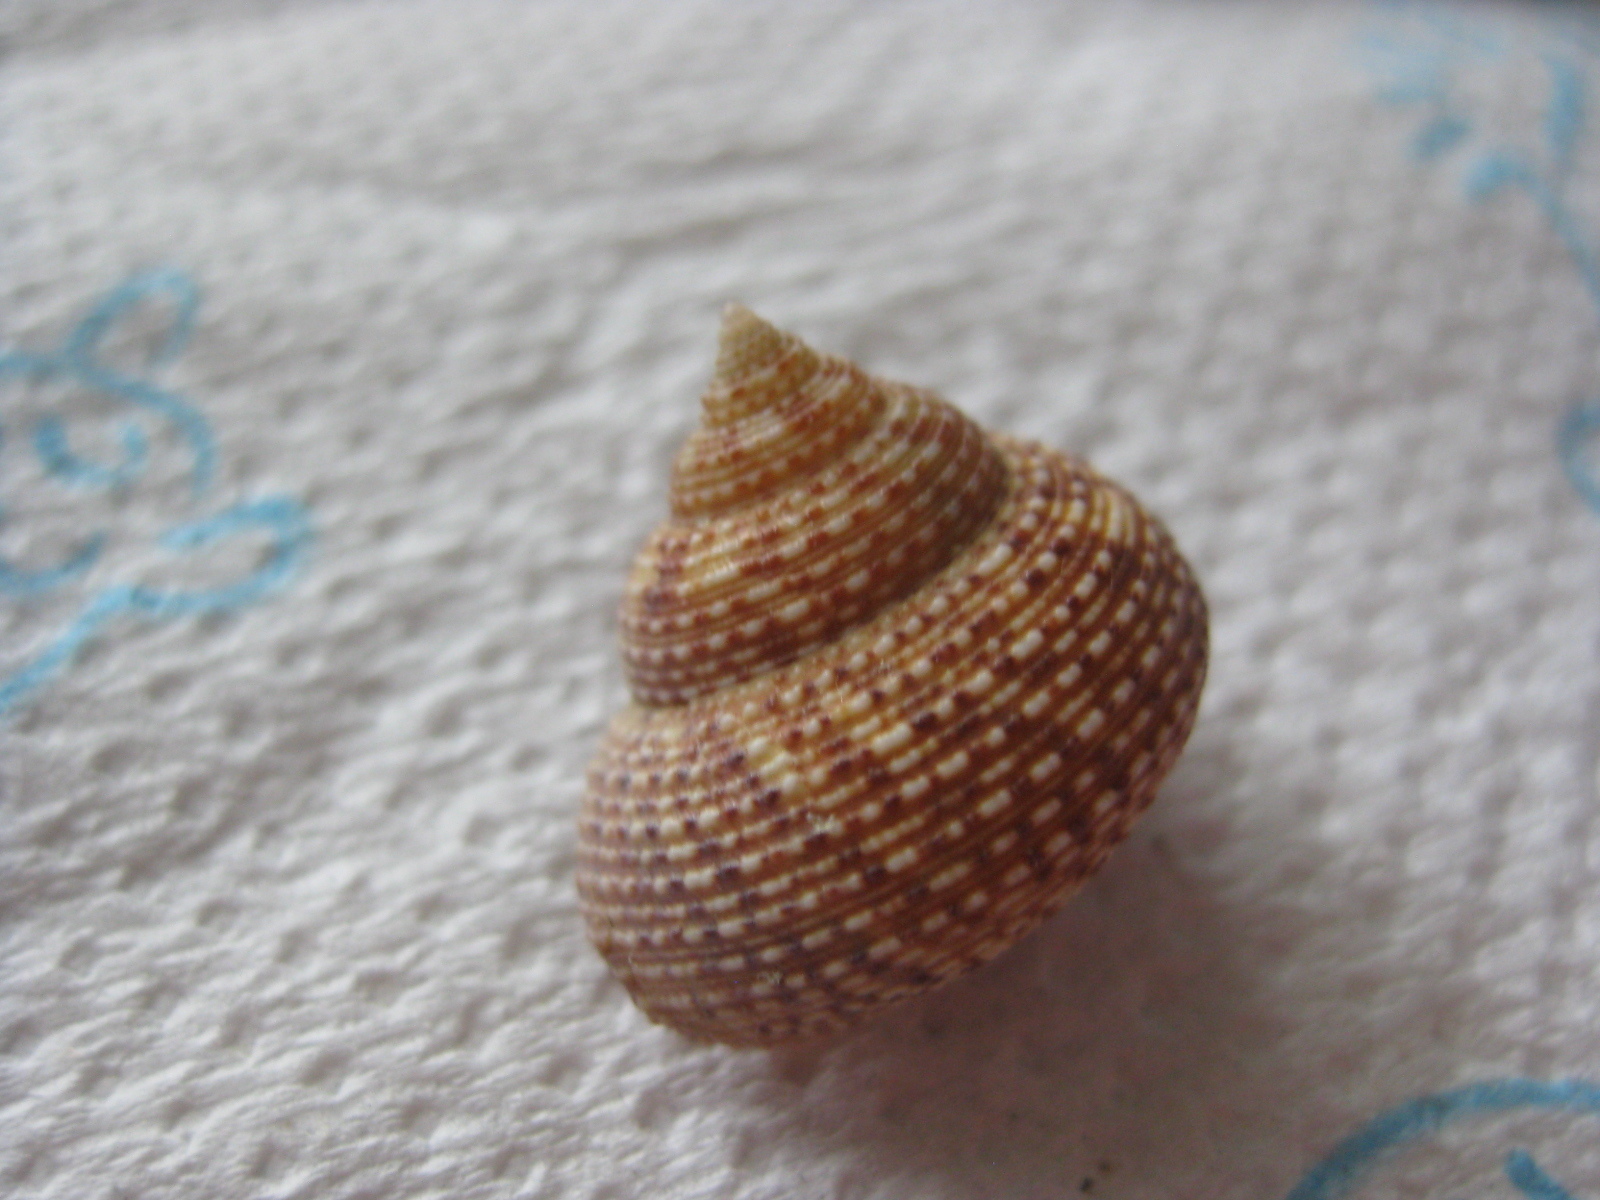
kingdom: Animalia
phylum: Mollusca
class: Gastropoda
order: Trochida
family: Calliostomatidae
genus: Maurea
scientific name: Maurea punctulata
